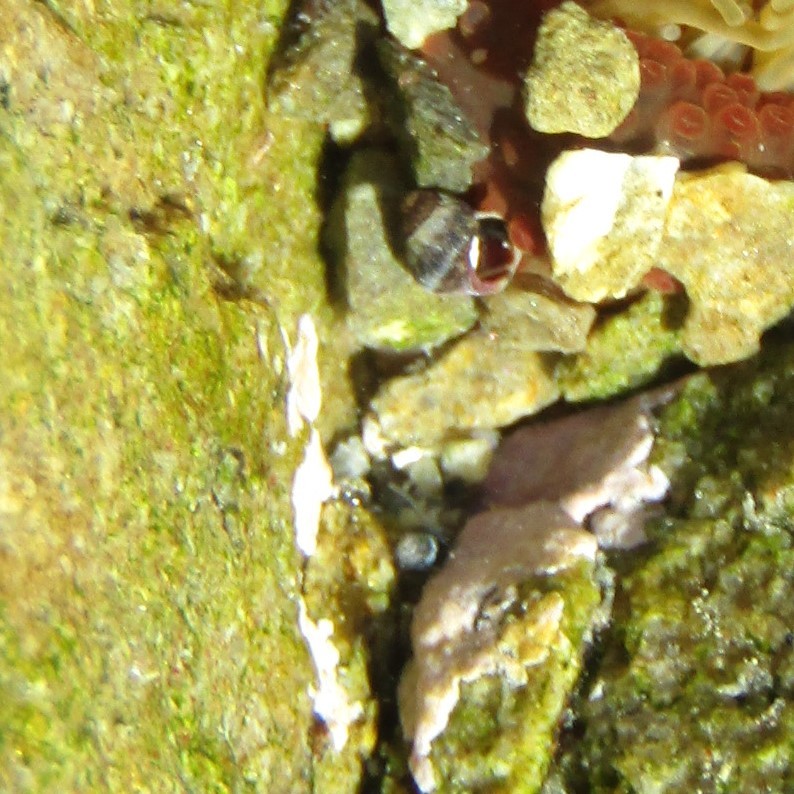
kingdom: Animalia
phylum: Mollusca
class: Gastropoda
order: Littorinimorpha
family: Littorinidae
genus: Austrolittorina
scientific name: Austrolittorina antipodum
